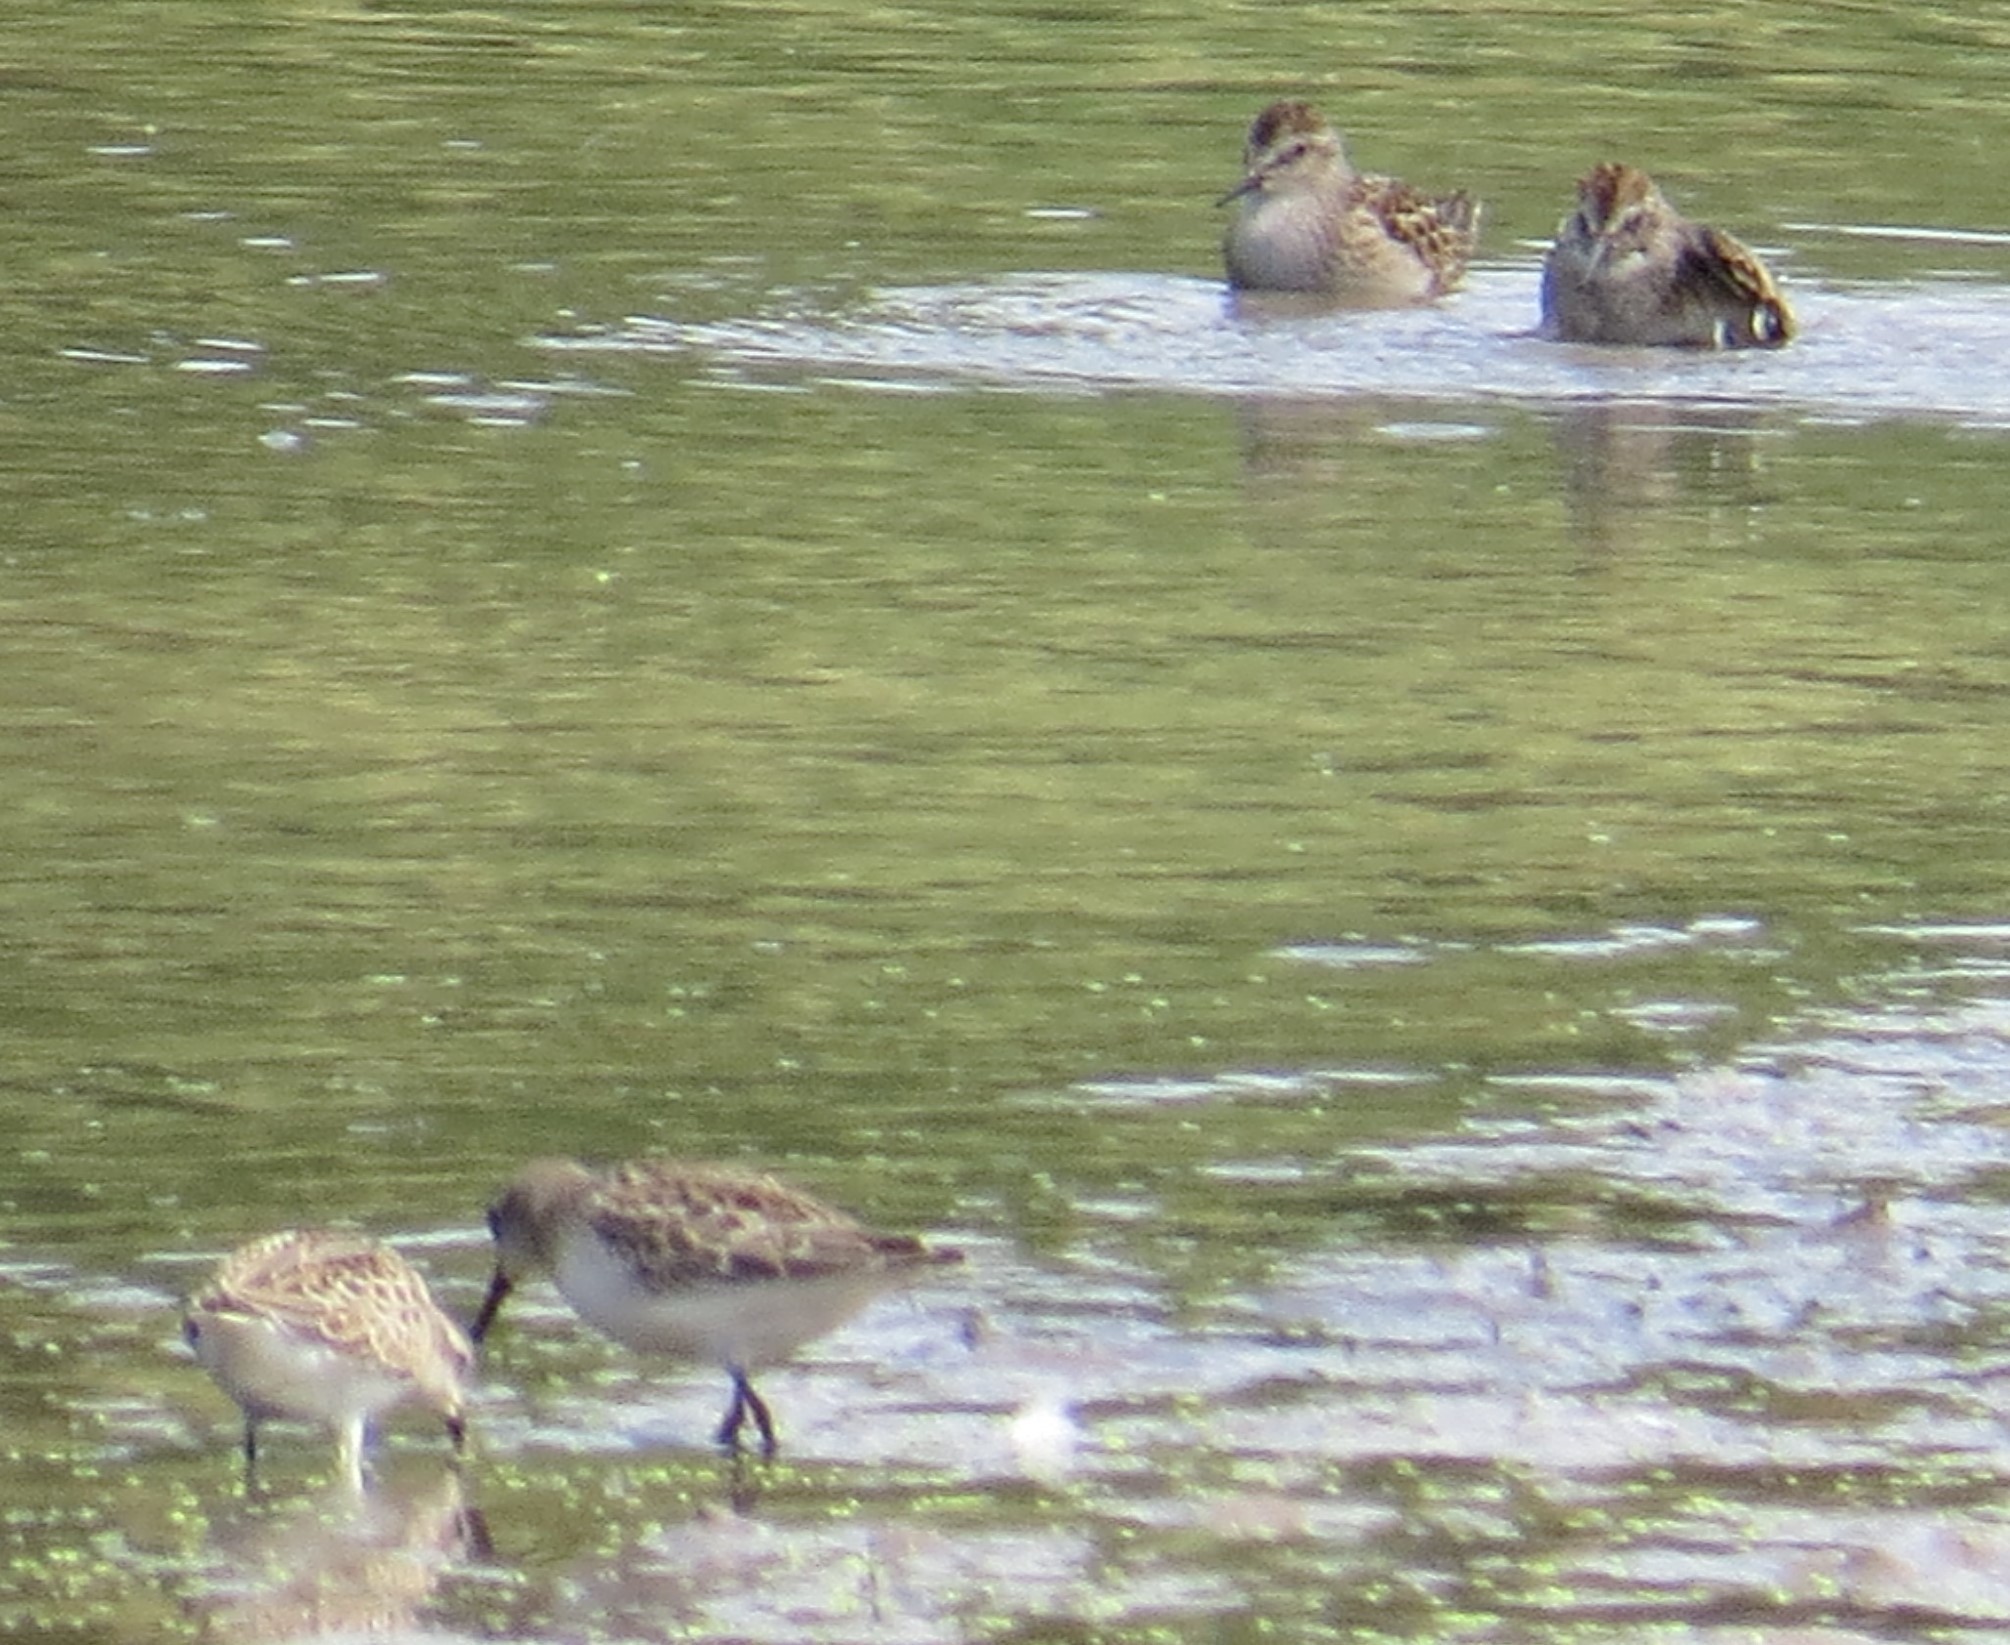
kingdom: Animalia
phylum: Chordata
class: Aves
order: Charadriiformes
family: Scolopacidae
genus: Calidris
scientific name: Calidris pusilla
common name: Semipalmated sandpiper
